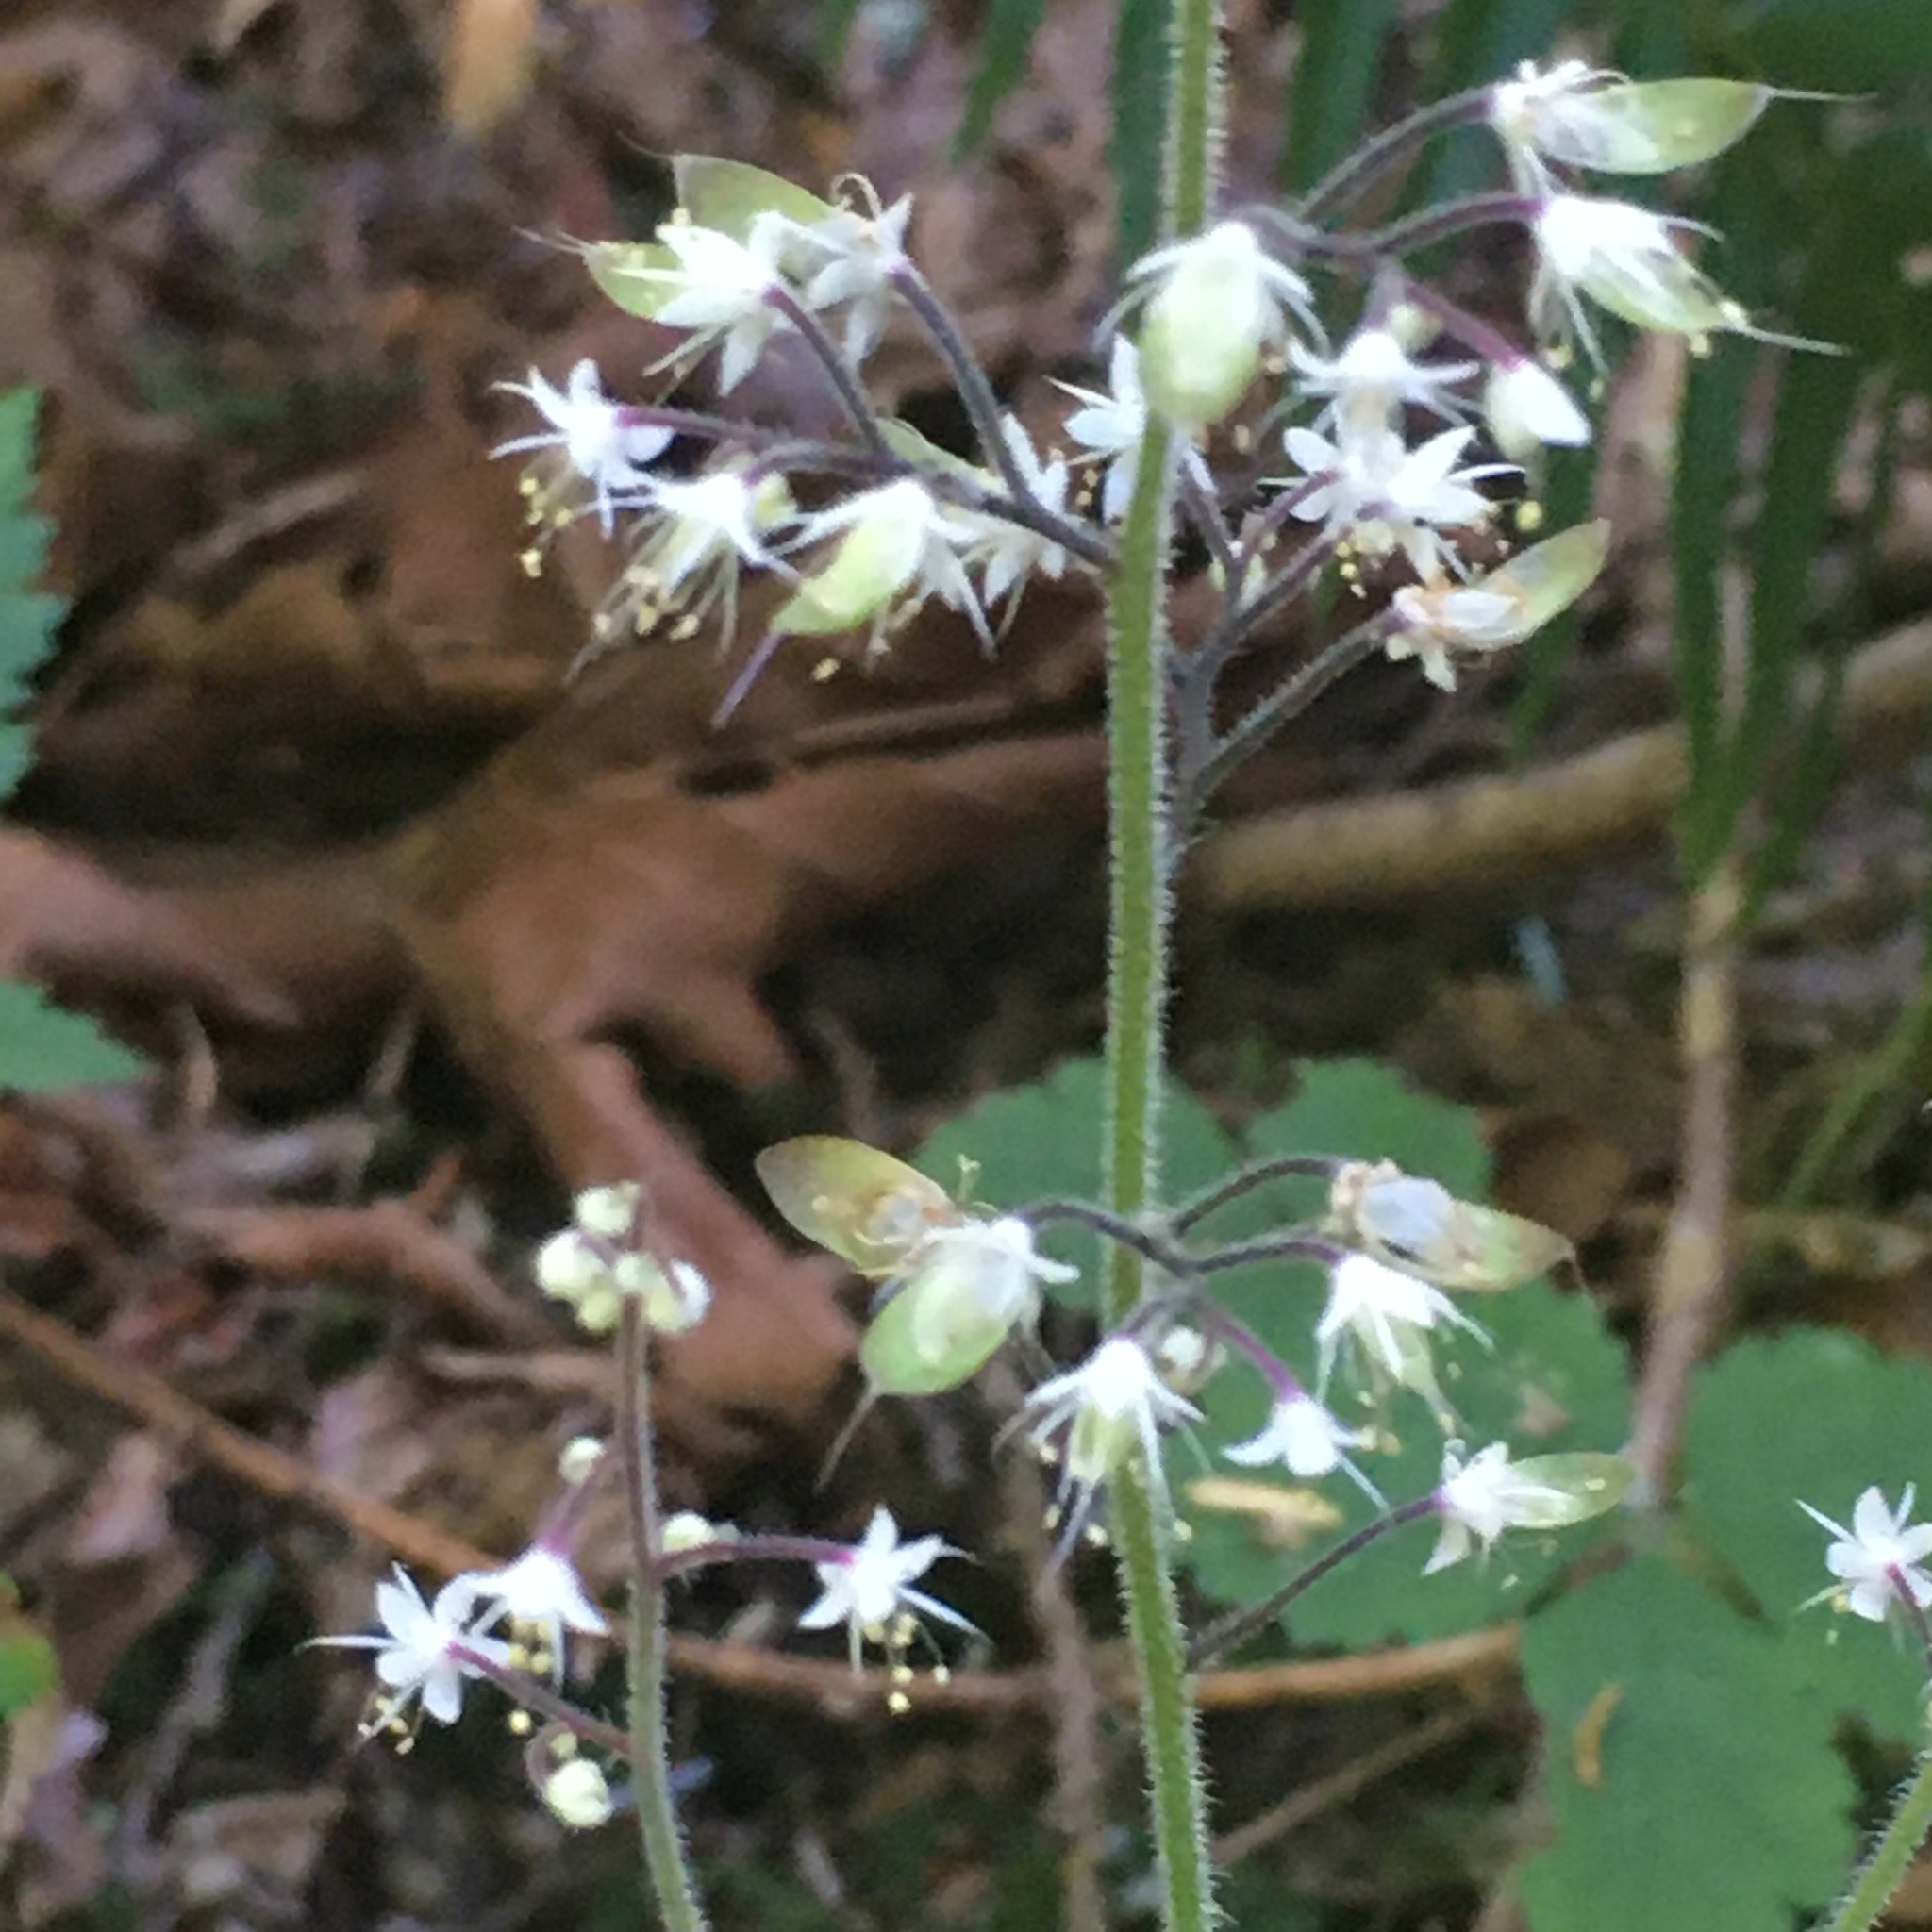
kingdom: Plantae
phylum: Tracheophyta
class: Magnoliopsida
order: Saxifragales
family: Saxifragaceae
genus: Tiarella
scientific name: Tiarella trifoliata
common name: Sugar-scoop
